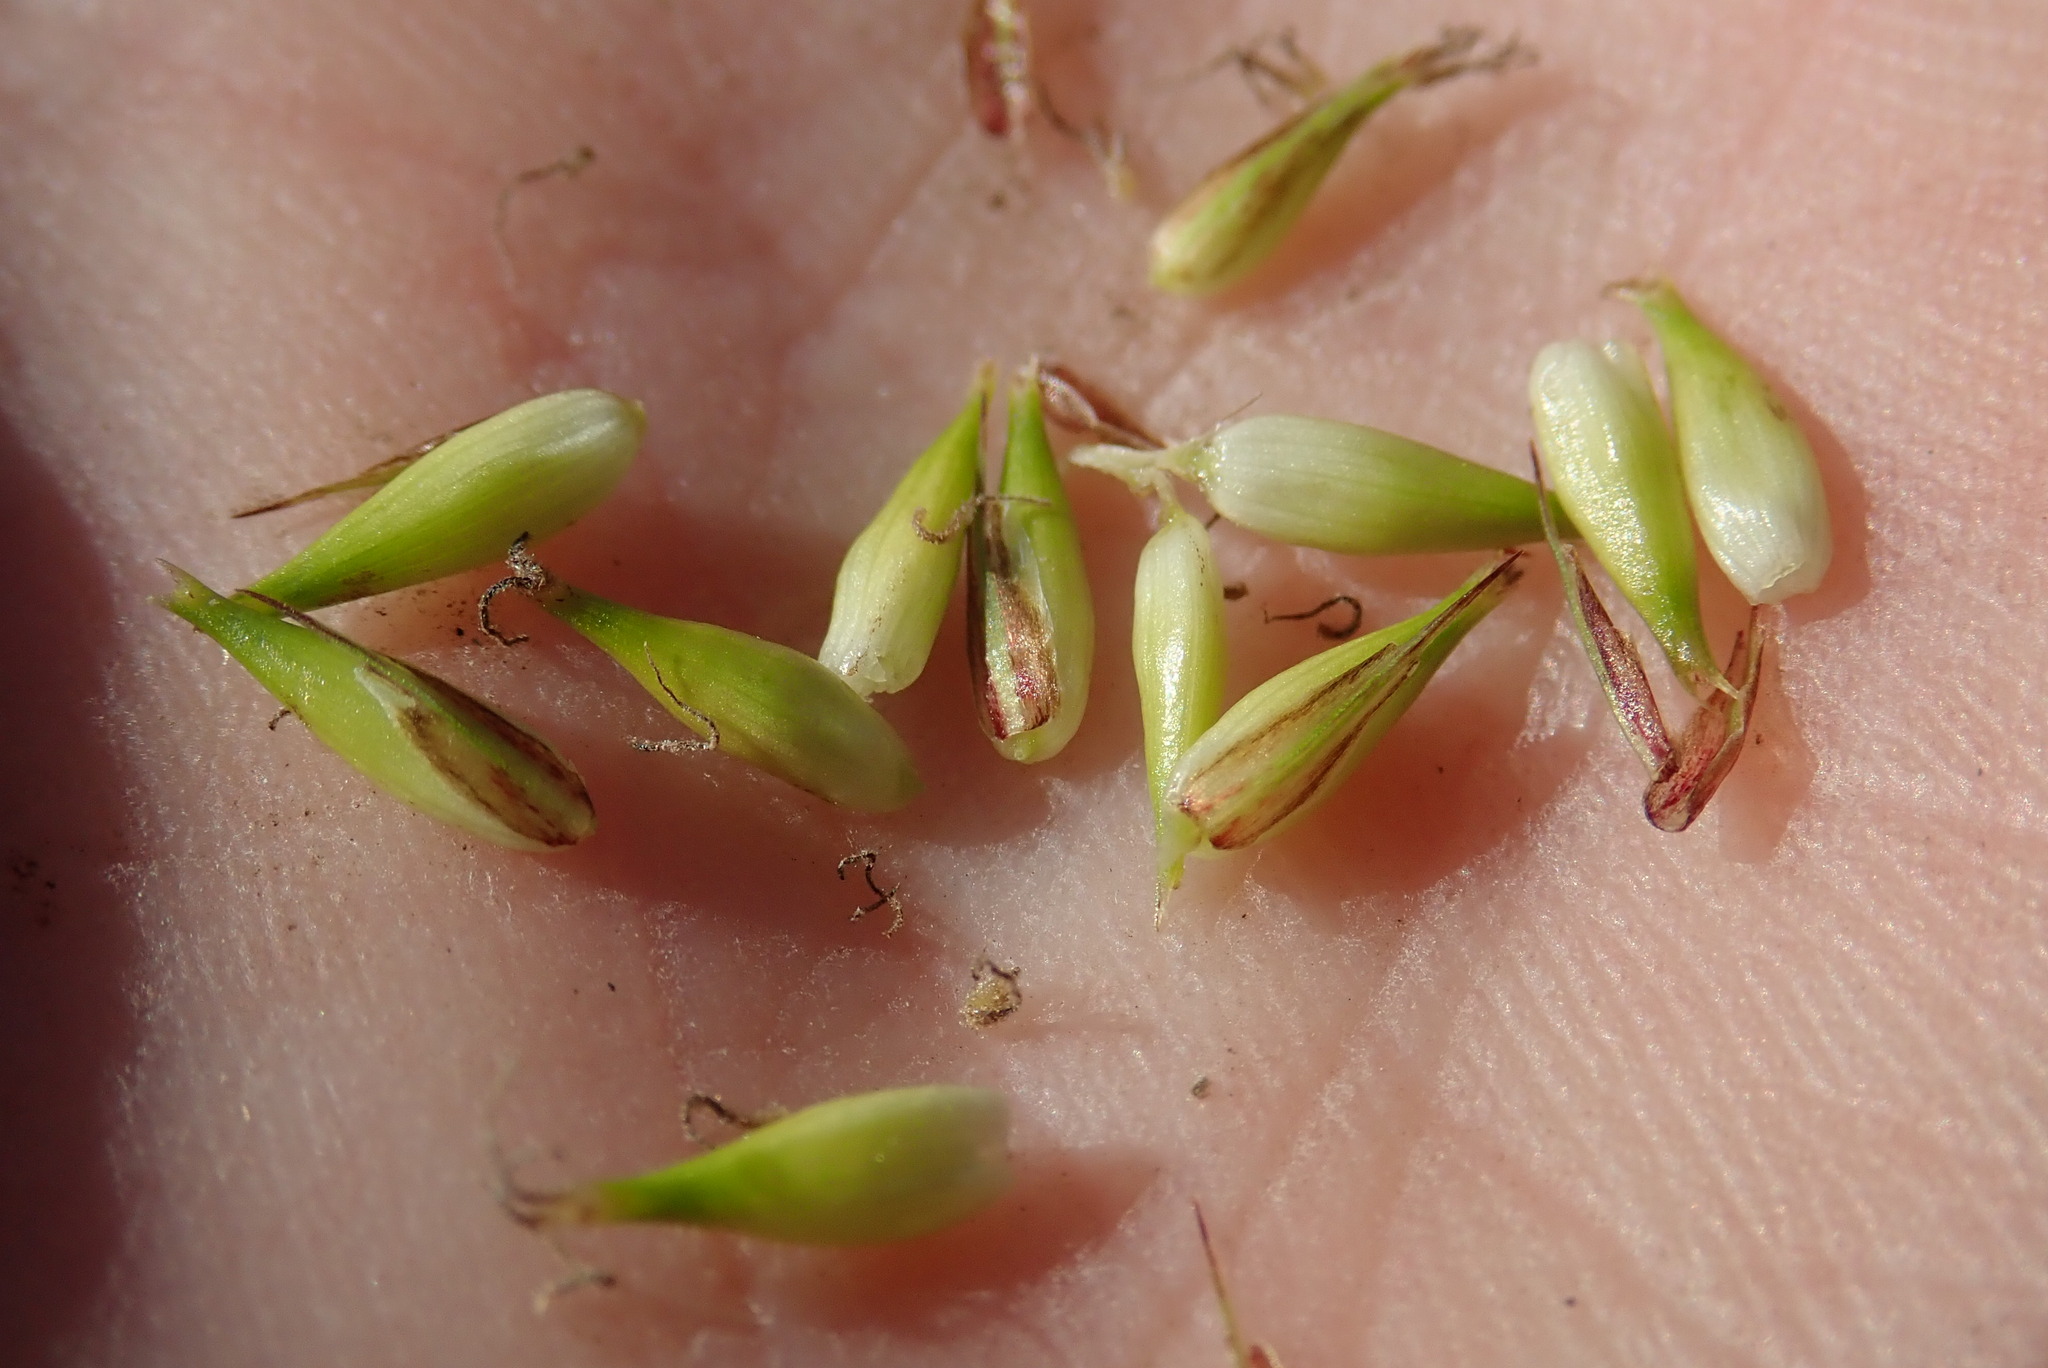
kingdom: Plantae
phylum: Tracheophyta
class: Liliopsida
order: Poales
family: Cyperaceae
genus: Carex
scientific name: Carex lacustris
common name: Common lake sedge
